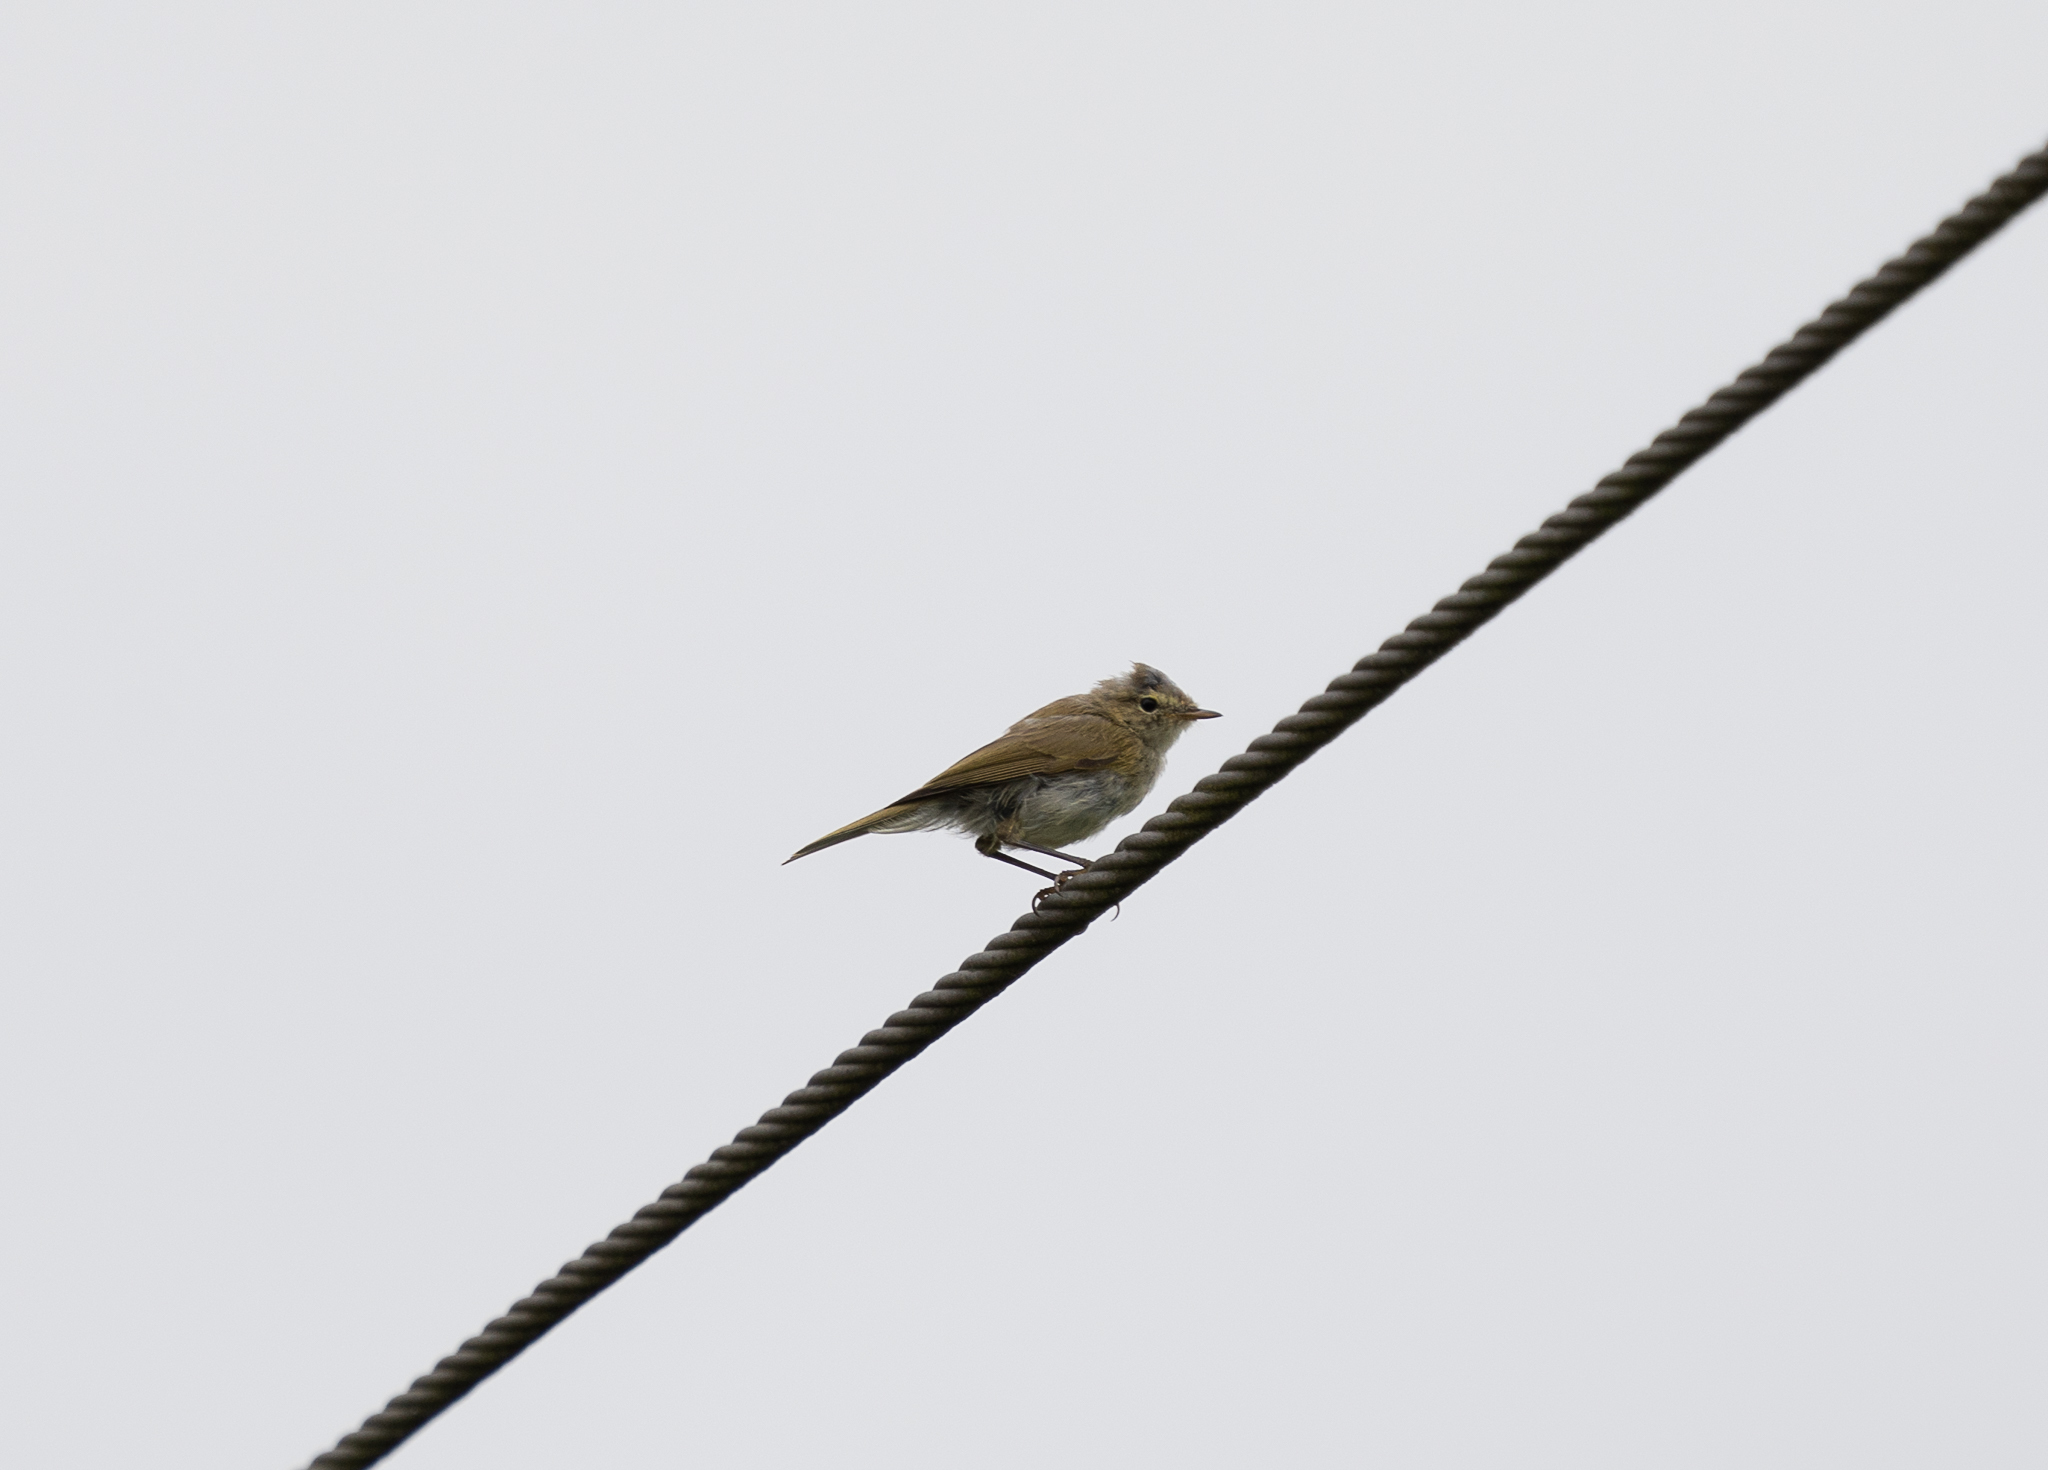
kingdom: Animalia
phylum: Chordata
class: Aves
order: Passeriformes
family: Phylloscopidae
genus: Phylloscopus
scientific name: Phylloscopus collybita
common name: Common chiffchaff
